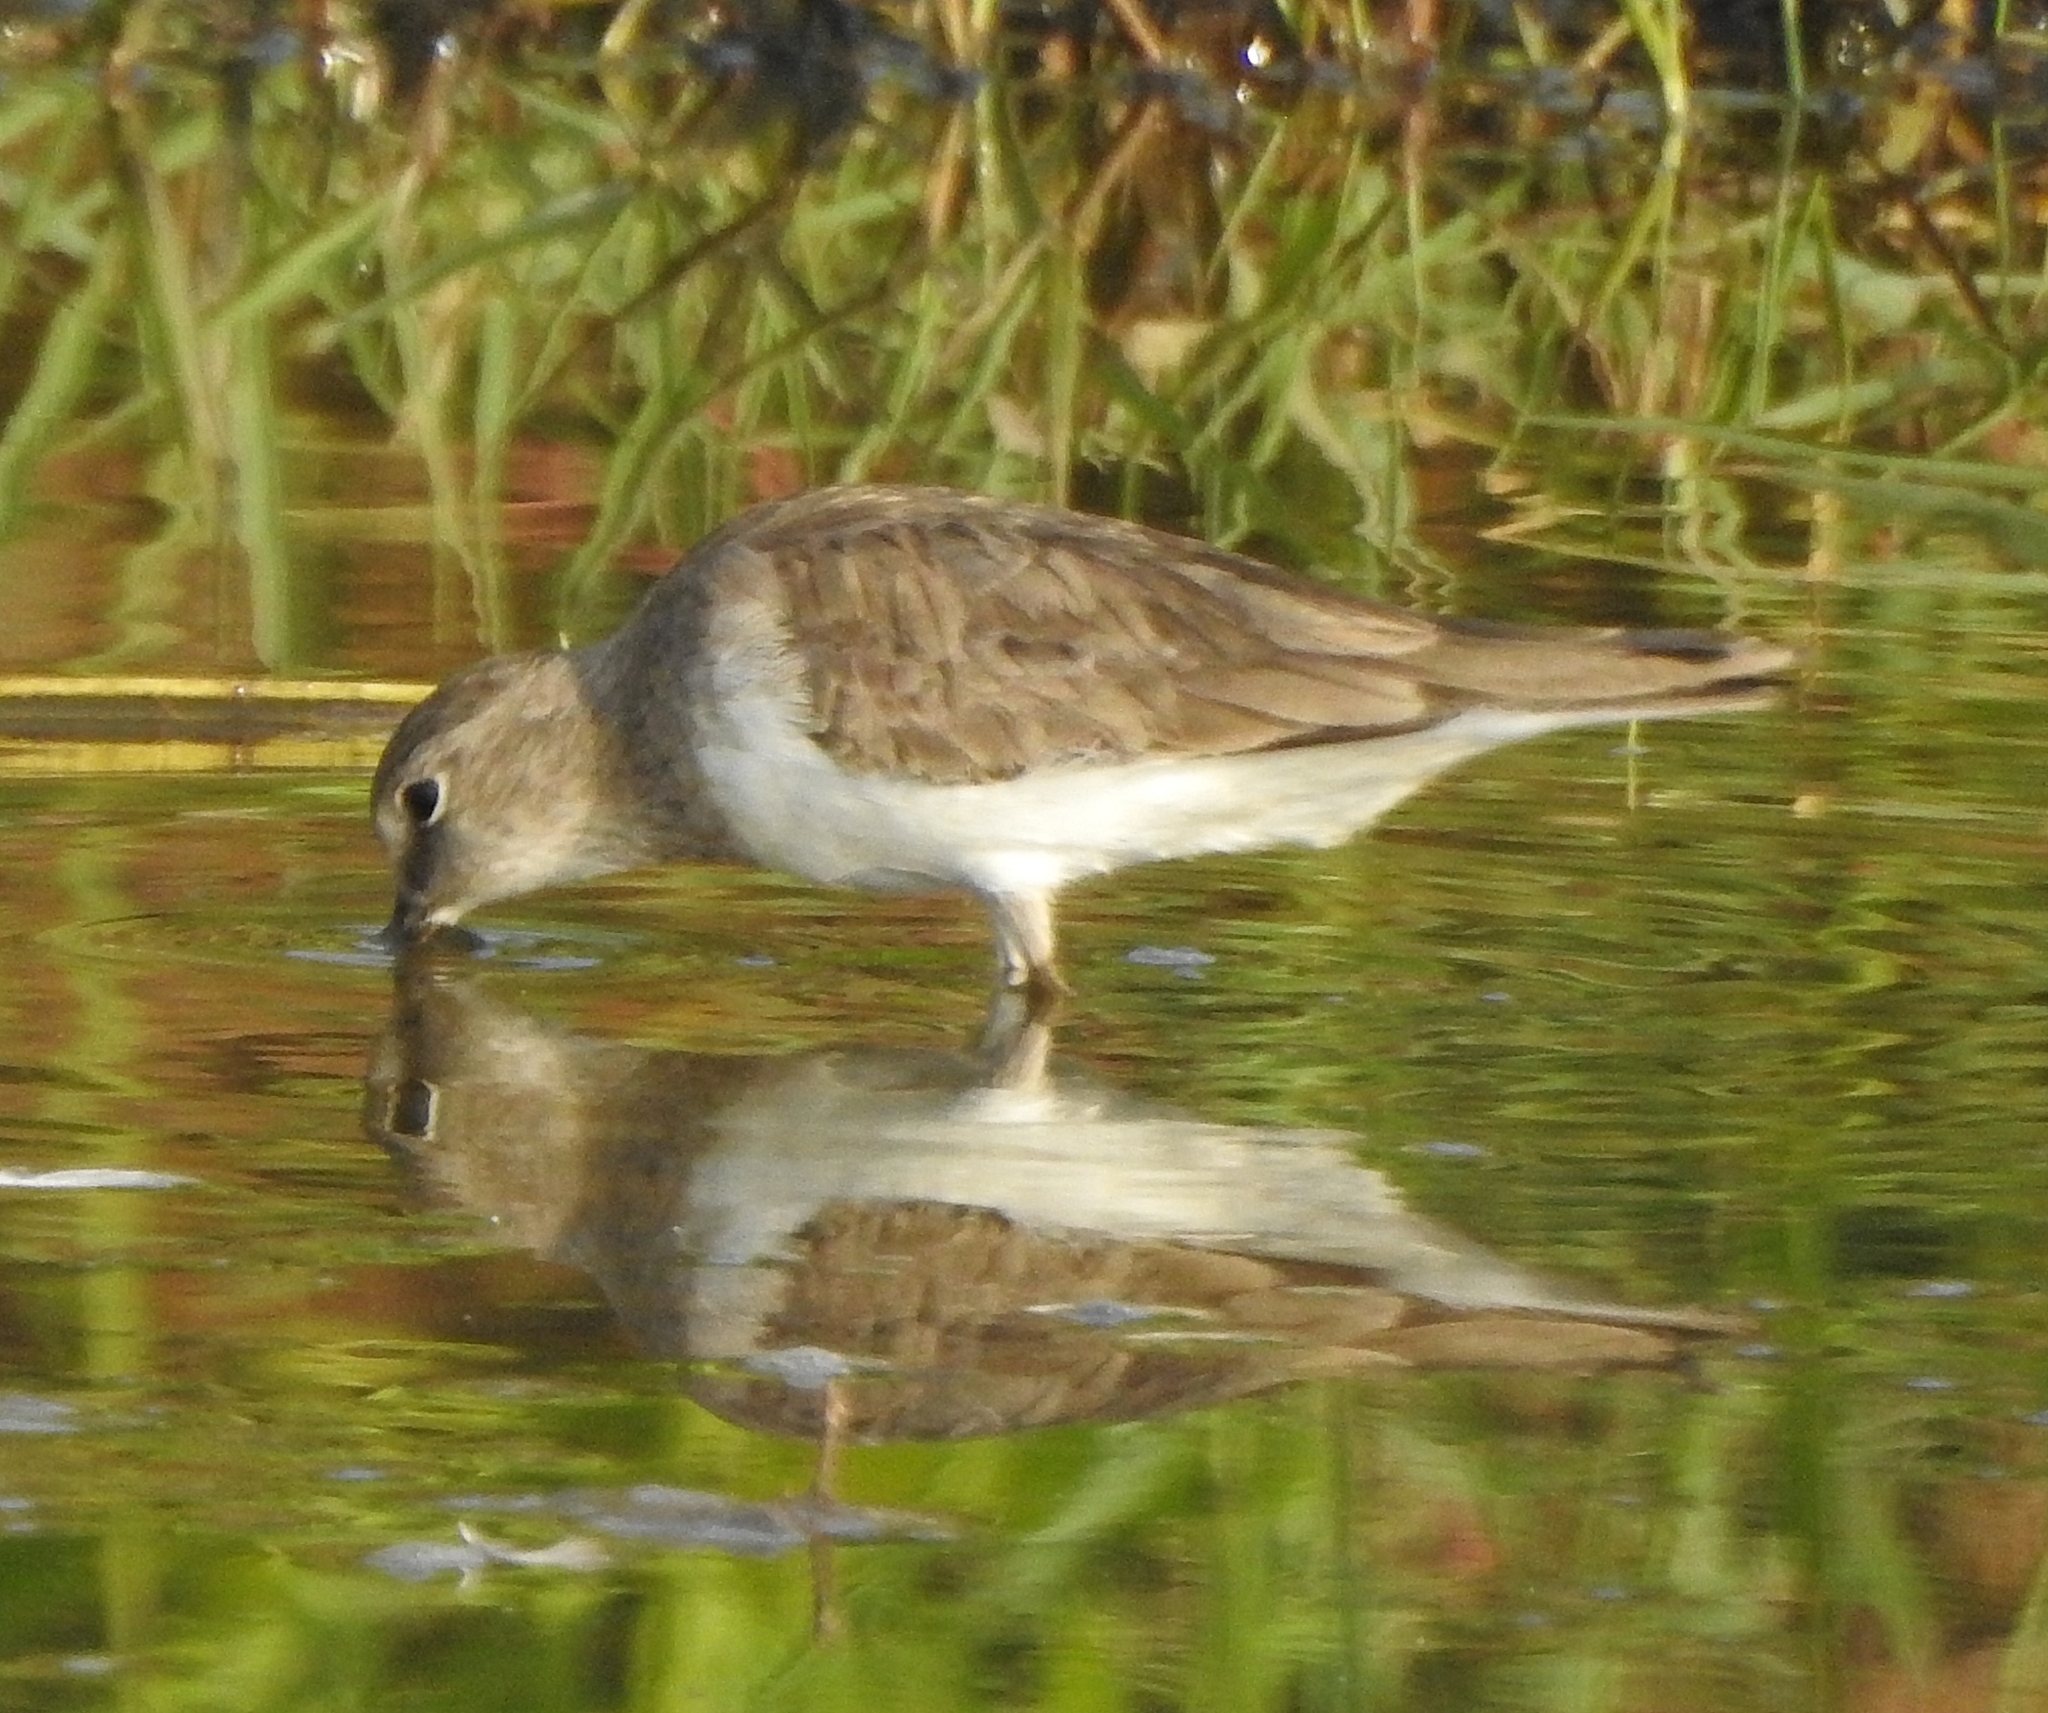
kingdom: Animalia
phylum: Chordata
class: Aves
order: Charadriiformes
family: Scolopacidae
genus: Calidris
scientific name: Calidris temminckii
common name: Temminck's stint
